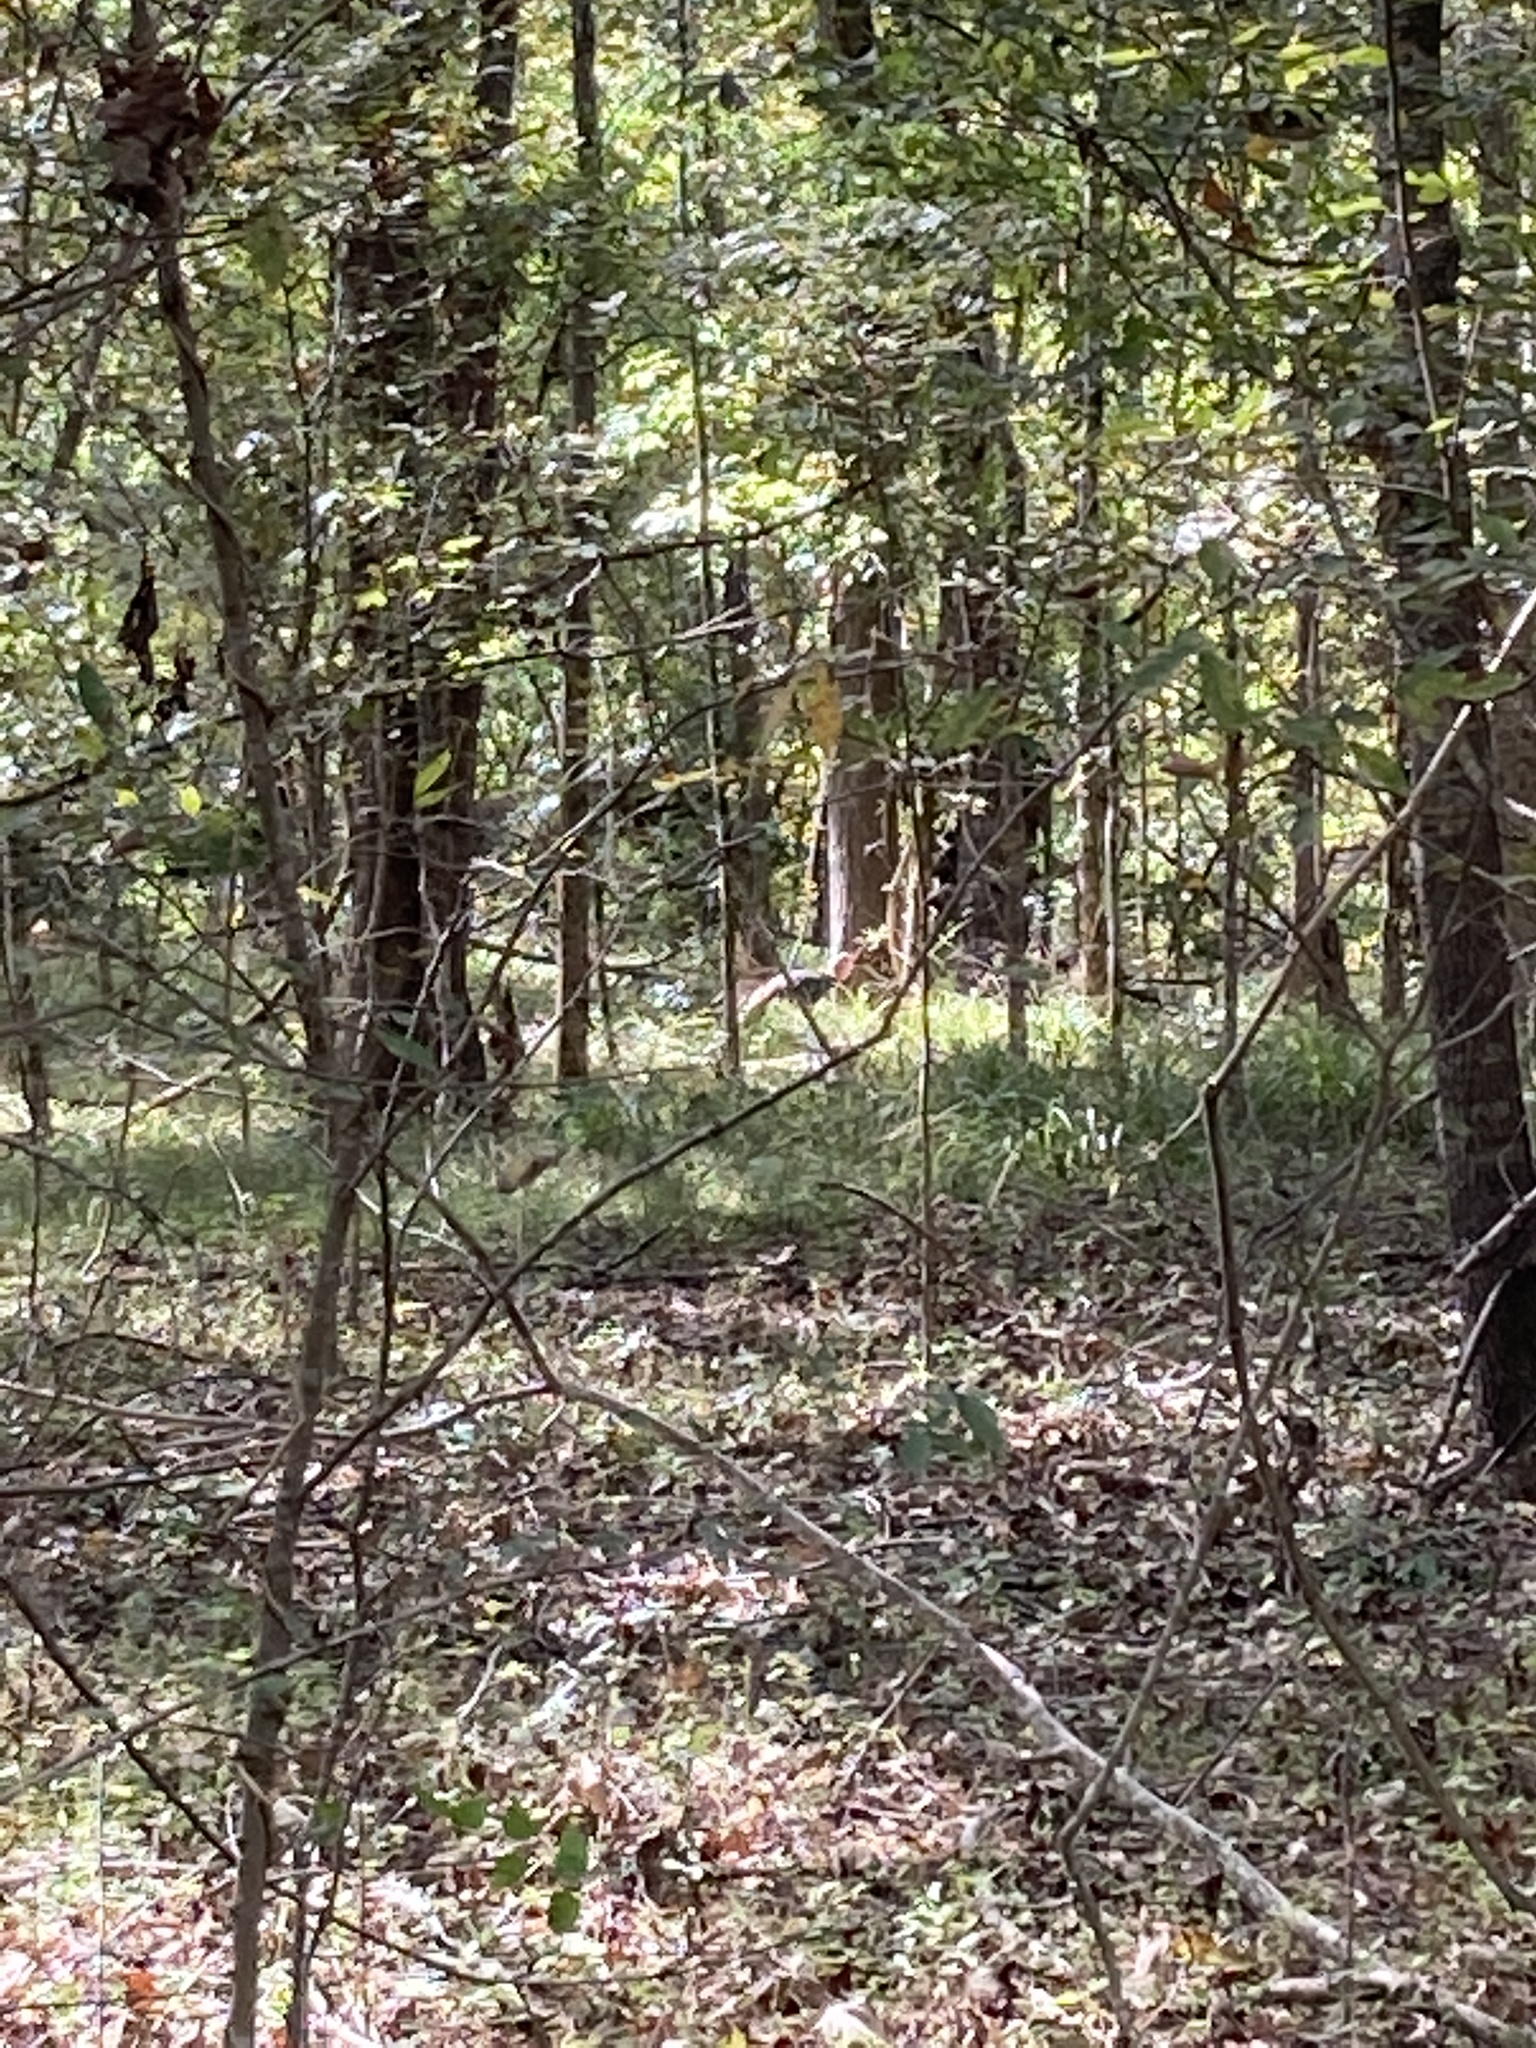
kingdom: Animalia
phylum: Chordata
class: Aves
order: Galliformes
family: Phasianidae
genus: Meleagris
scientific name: Meleagris gallopavo
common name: Wild turkey
